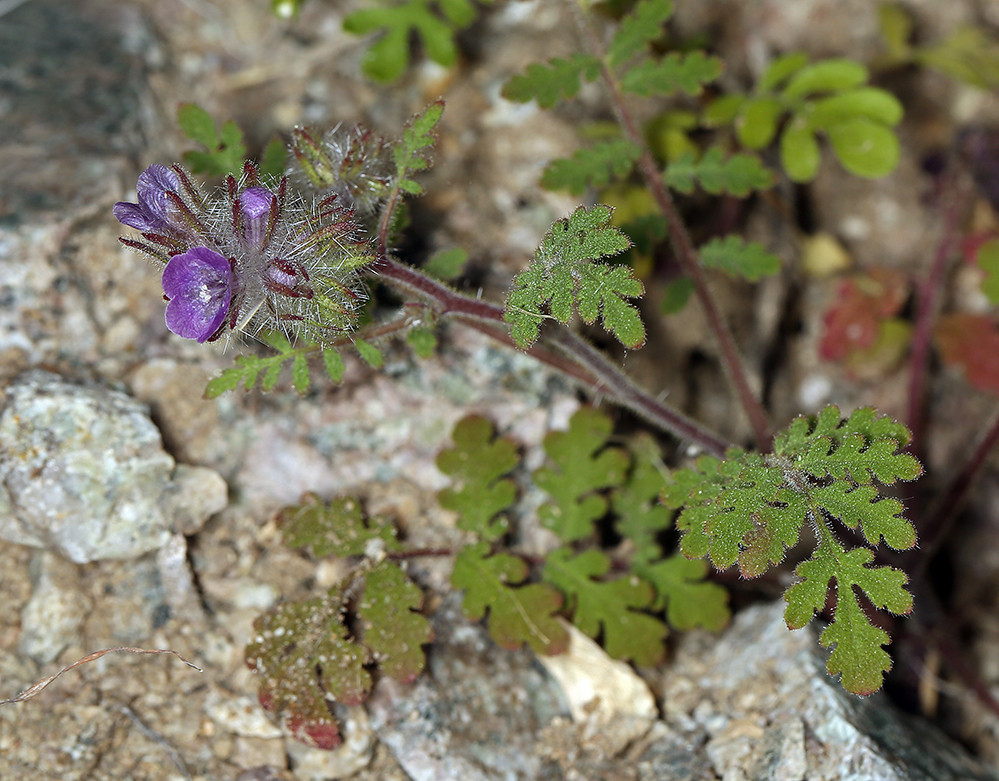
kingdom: Plantae
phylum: Tracheophyta
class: Magnoliopsida
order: Boraginales
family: Hydrophyllaceae
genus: Phacelia
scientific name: Phacelia cryptantha
